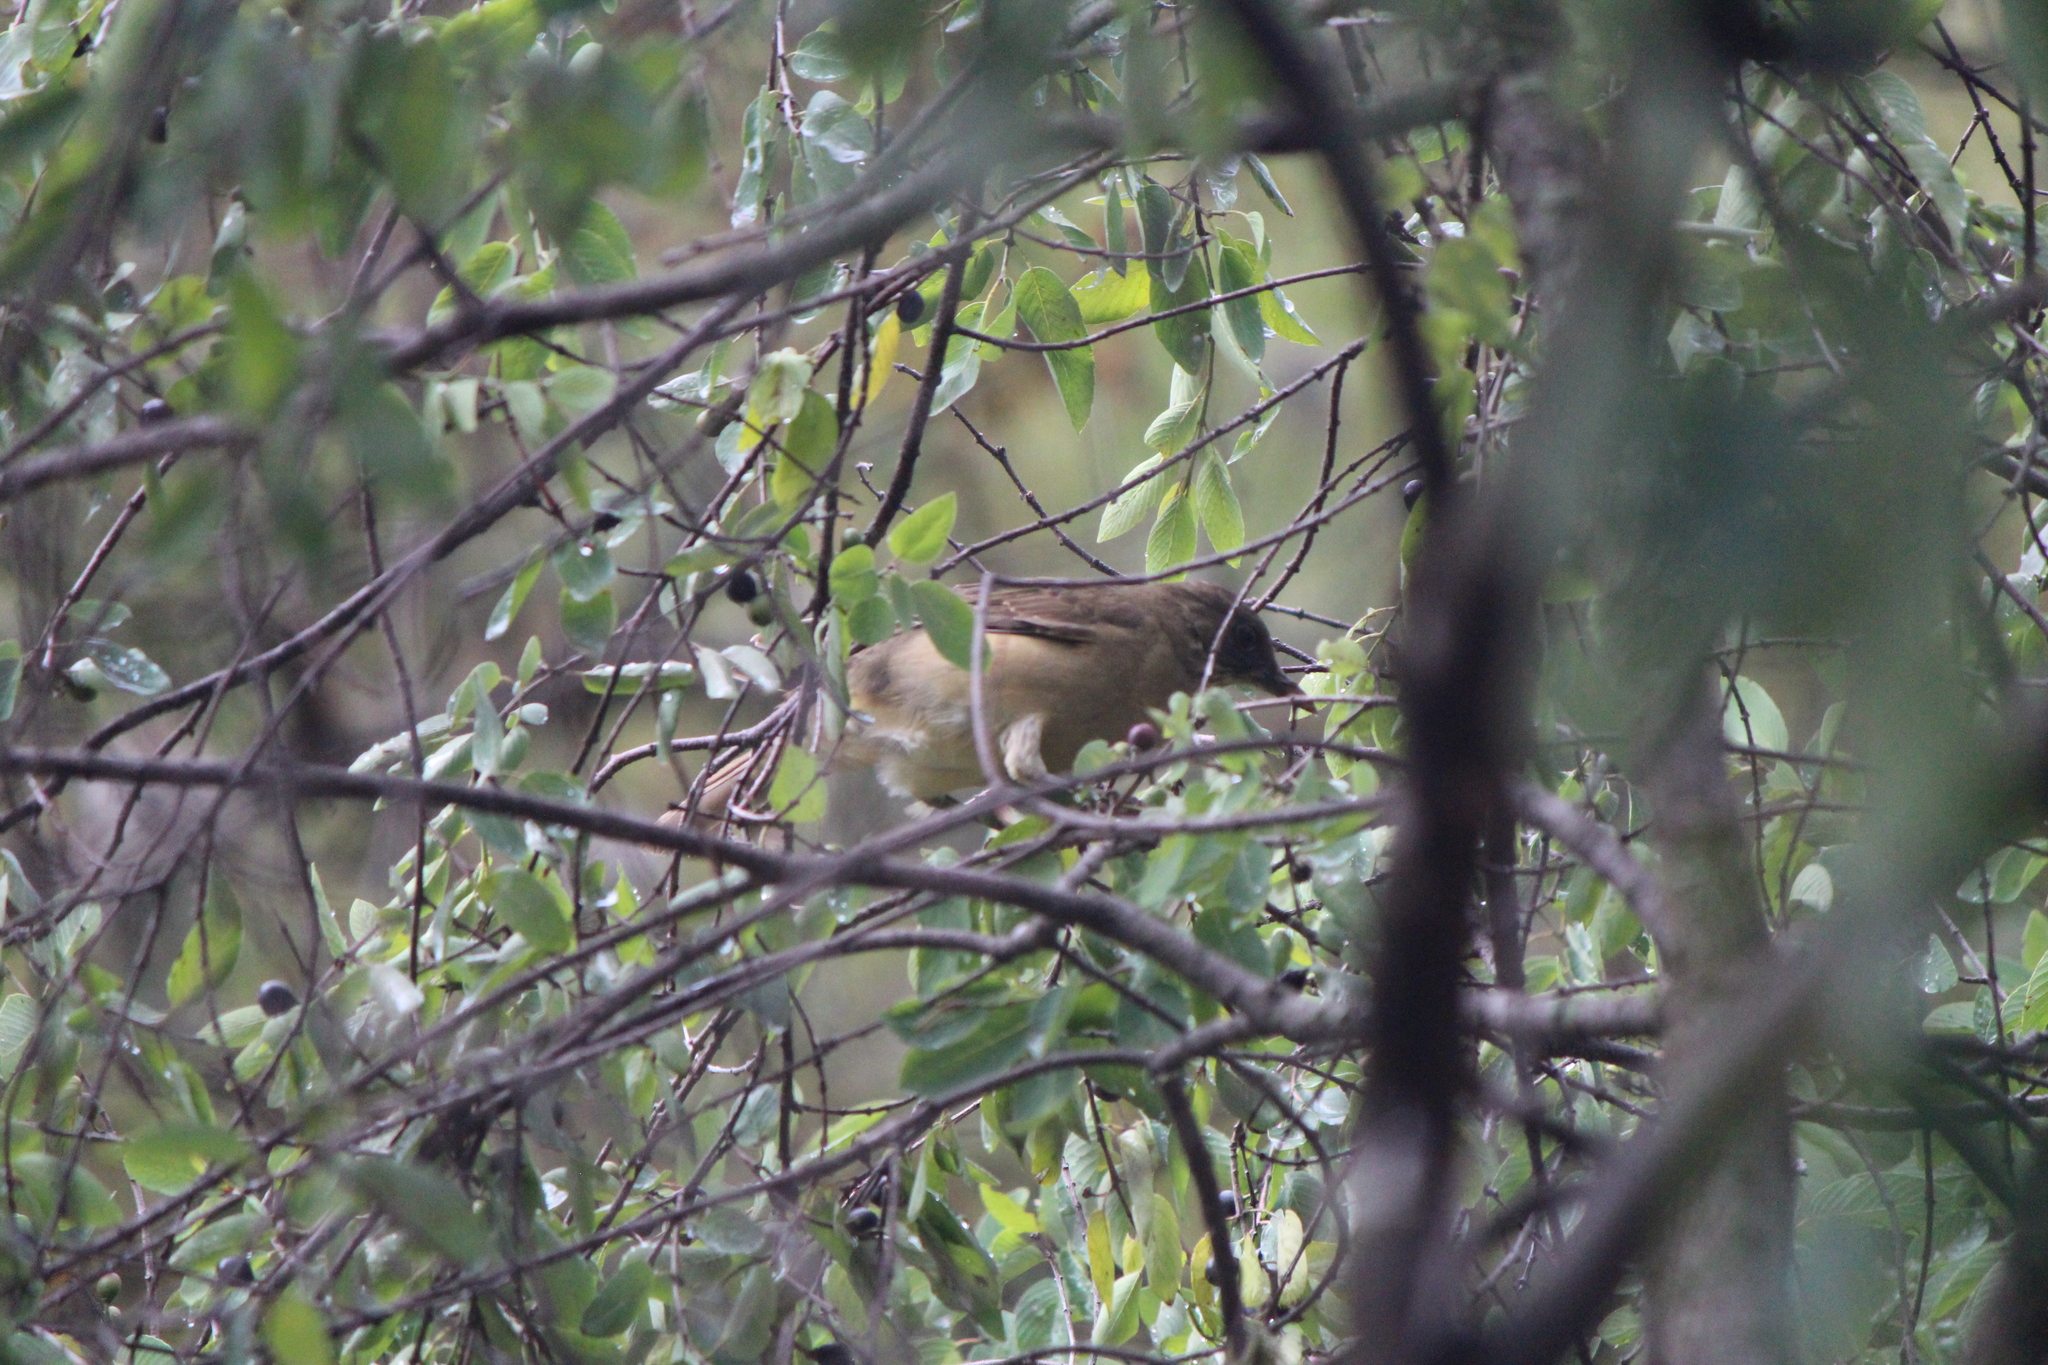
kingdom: Animalia
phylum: Chordata
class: Aves
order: Passeriformes
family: Turdidae
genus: Turdus
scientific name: Turdus grayi
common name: Clay-colored thrush
